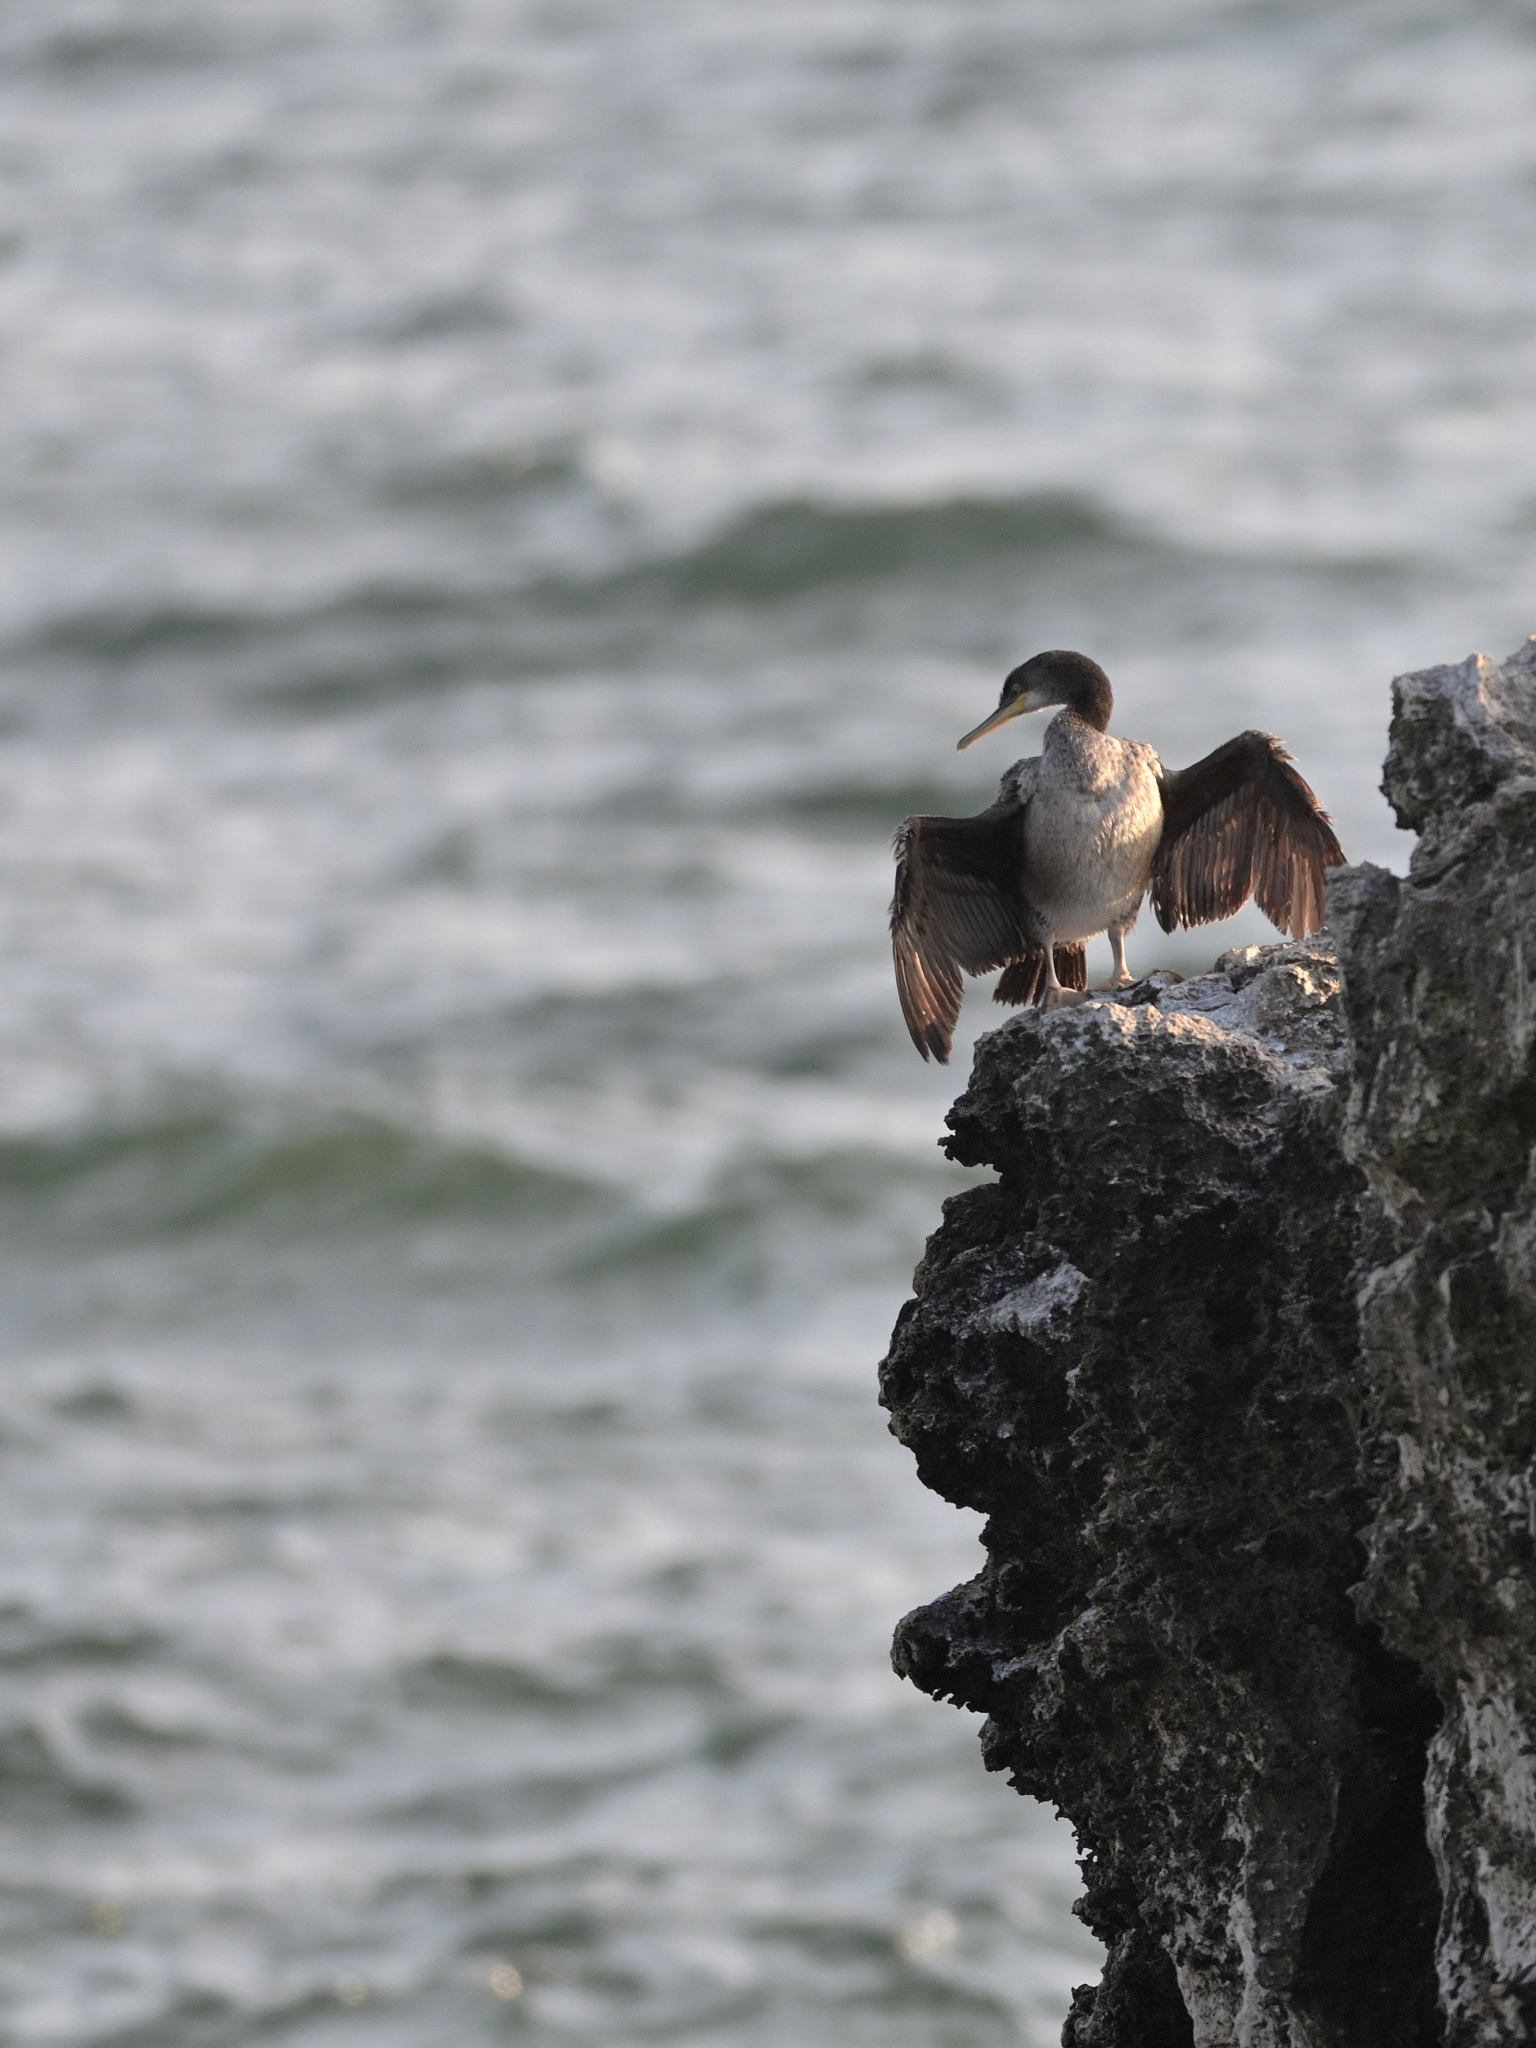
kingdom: Animalia
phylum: Chordata
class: Aves
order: Suliformes
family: Phalacrocoracidae
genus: Phalacrocorax
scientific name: Phalacrocorax aristotelis
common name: European shag
